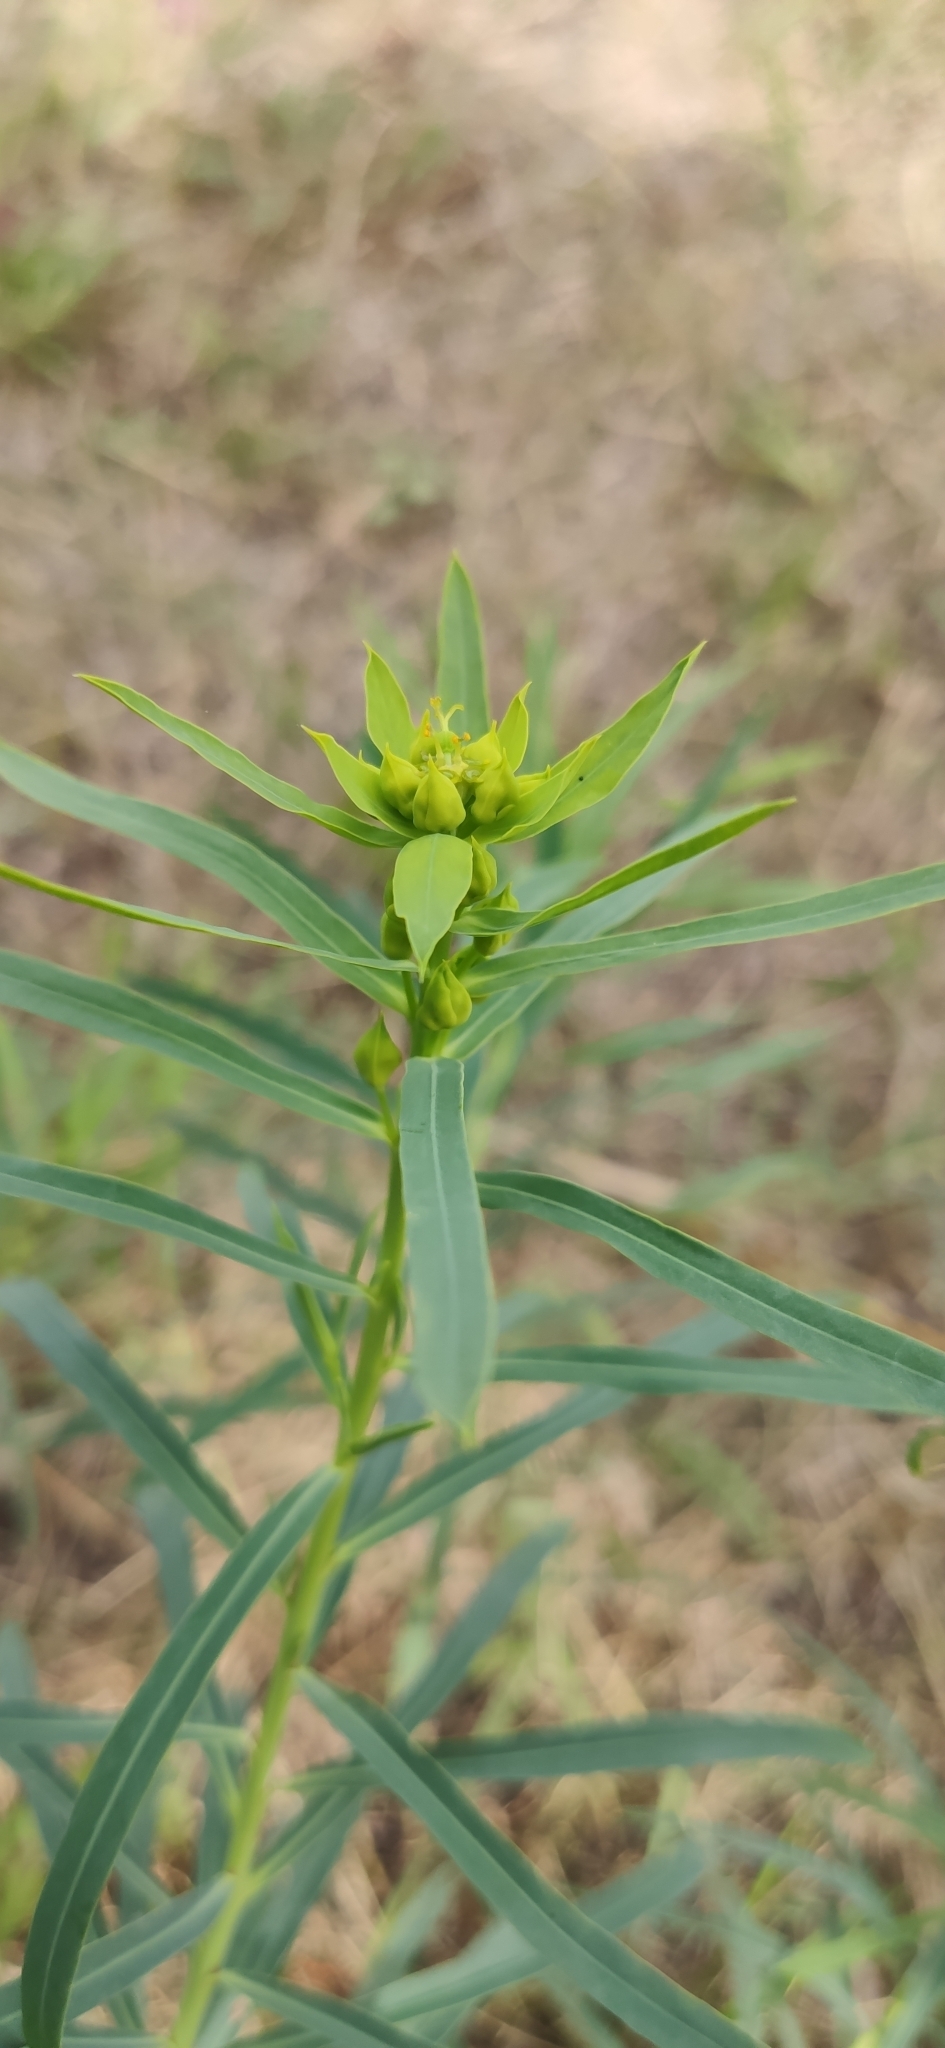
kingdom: Plantae
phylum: Tracheophyta
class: Magnoliopsida
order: Malpighiales
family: Euphorbiaceae
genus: Euphorbia
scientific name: Euphorbia virgata
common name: Leafy spurge
